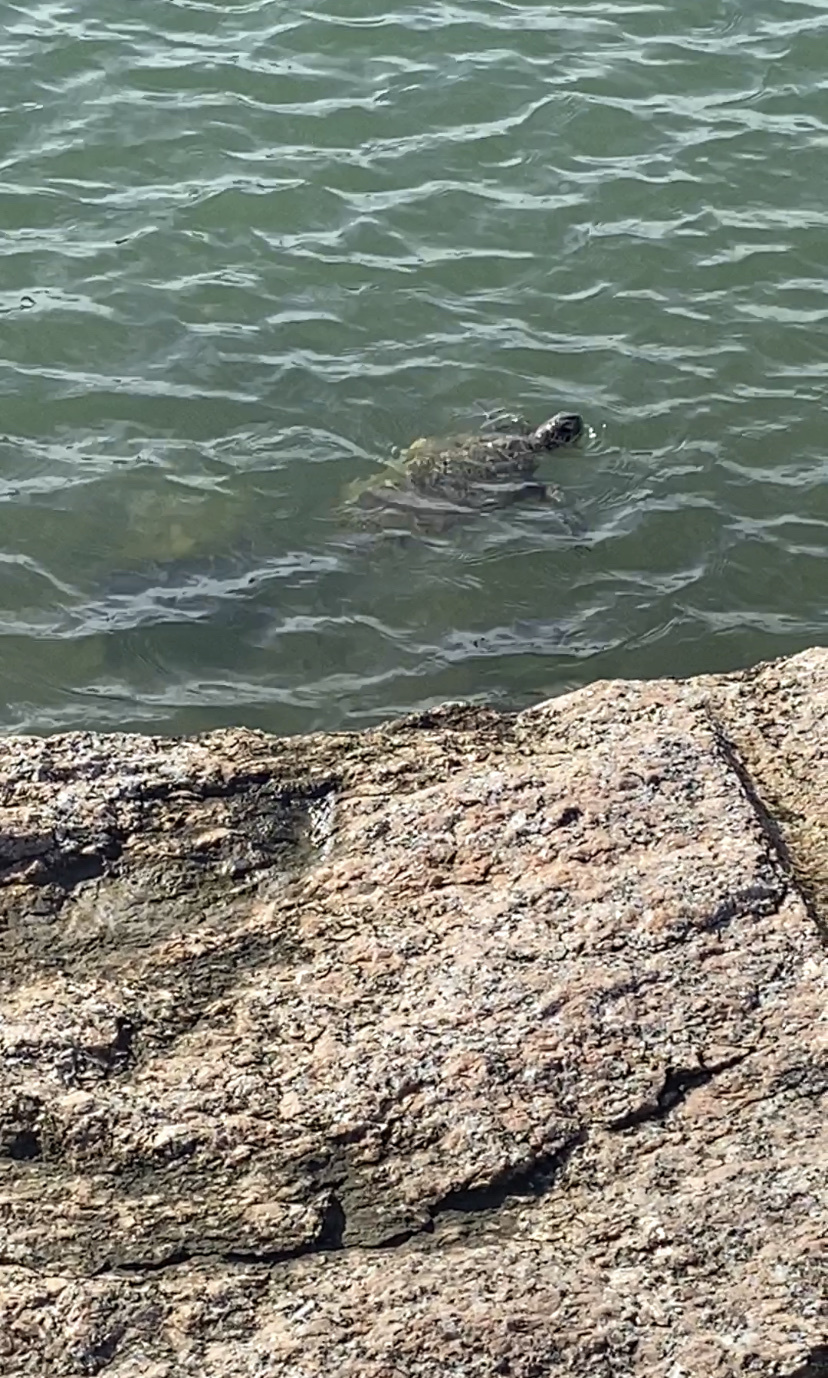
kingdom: Animalia
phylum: Chordata
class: Testudines
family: Cheloniidae
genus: Chelonia
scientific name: Chelonia mydas
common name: Green turtle
